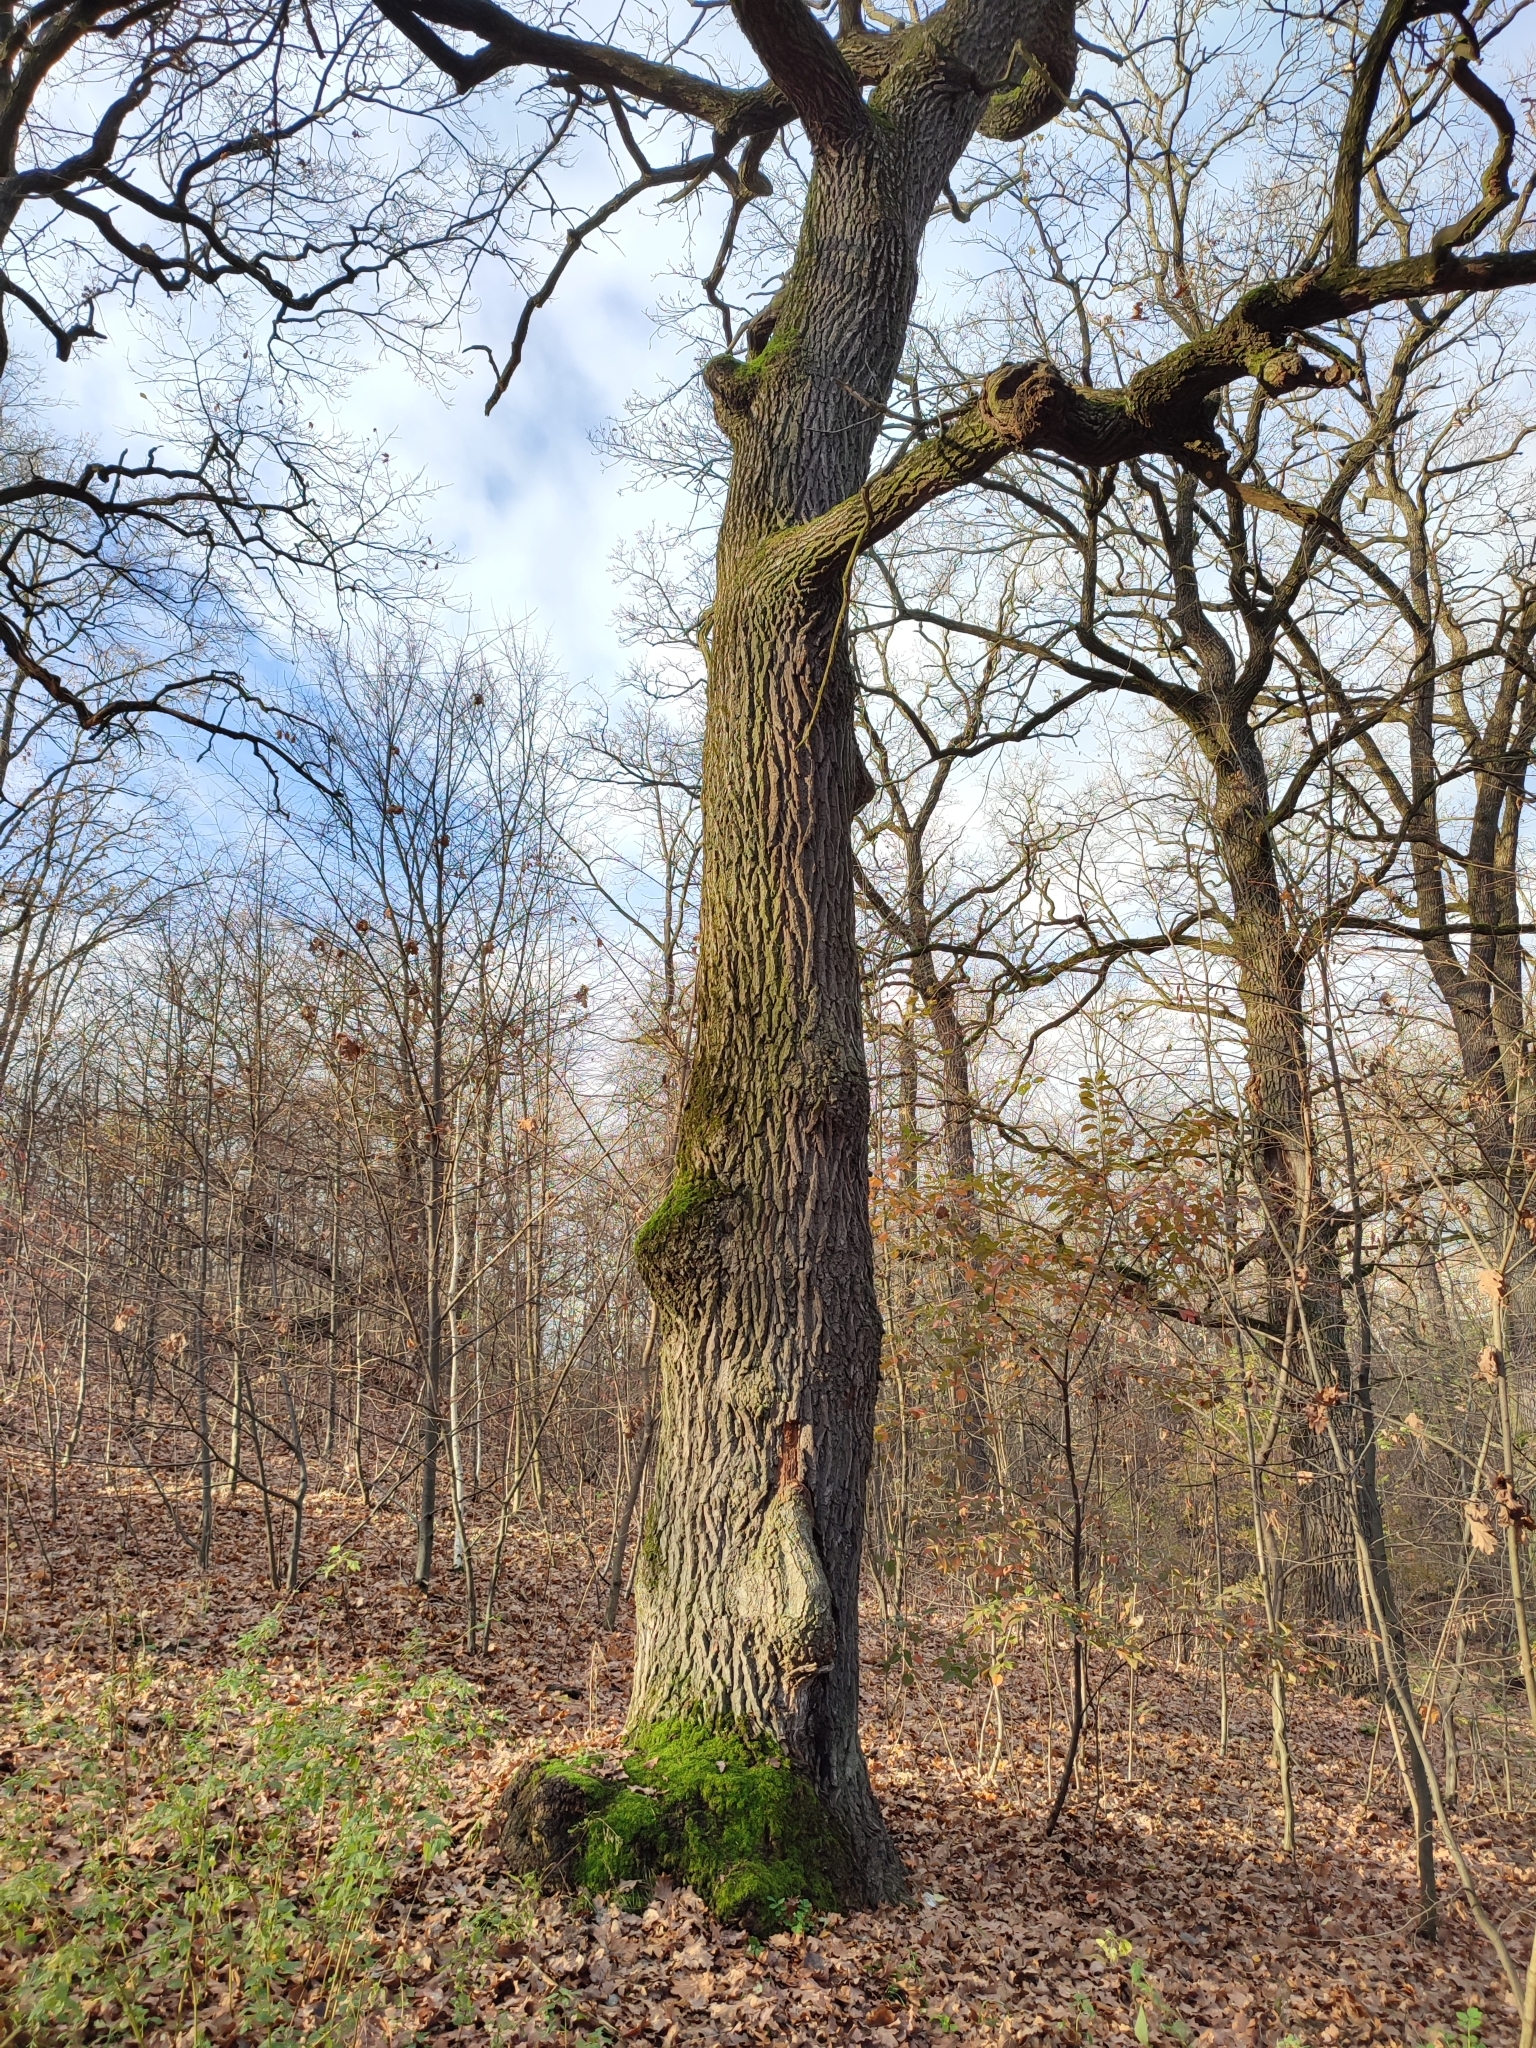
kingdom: Plantae
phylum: Tracheophyta
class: Magnoliopsida
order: Fagales
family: Fagaceae
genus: Quercus
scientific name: Quercus robur
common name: Pedunculate oak
